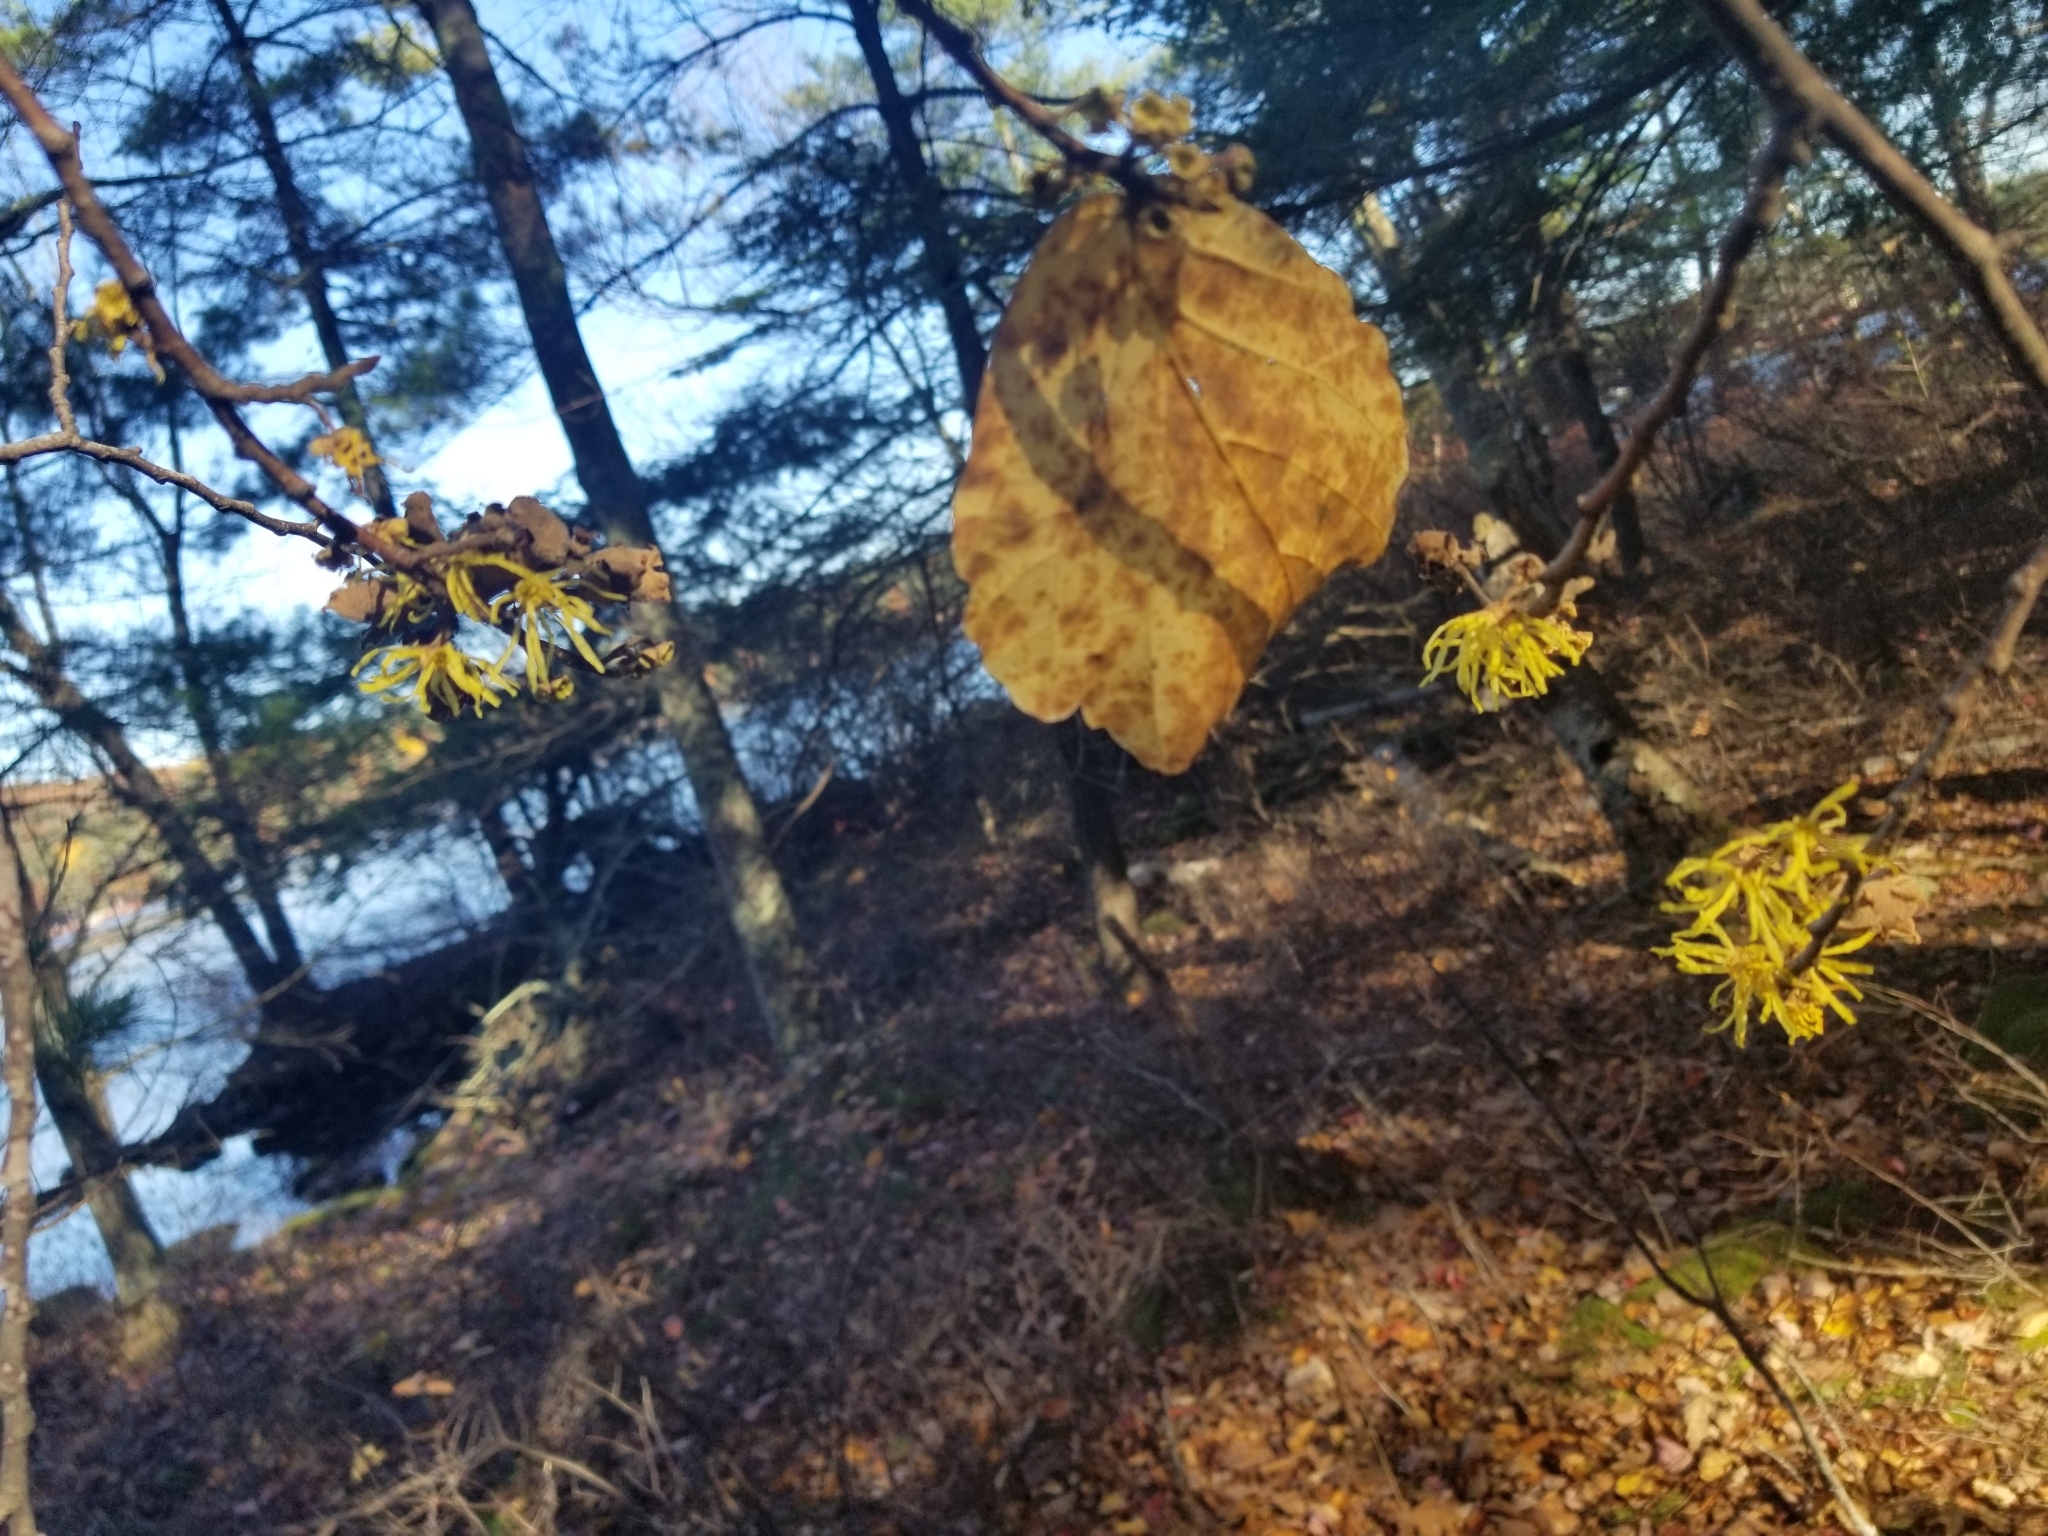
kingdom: Plantae
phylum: Tracheophyta
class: Magnoliopsida
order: Saxifragales
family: Hamamelidaceae
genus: Hamamelis
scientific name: Hamamelis virginiana
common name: Witch-hazel
